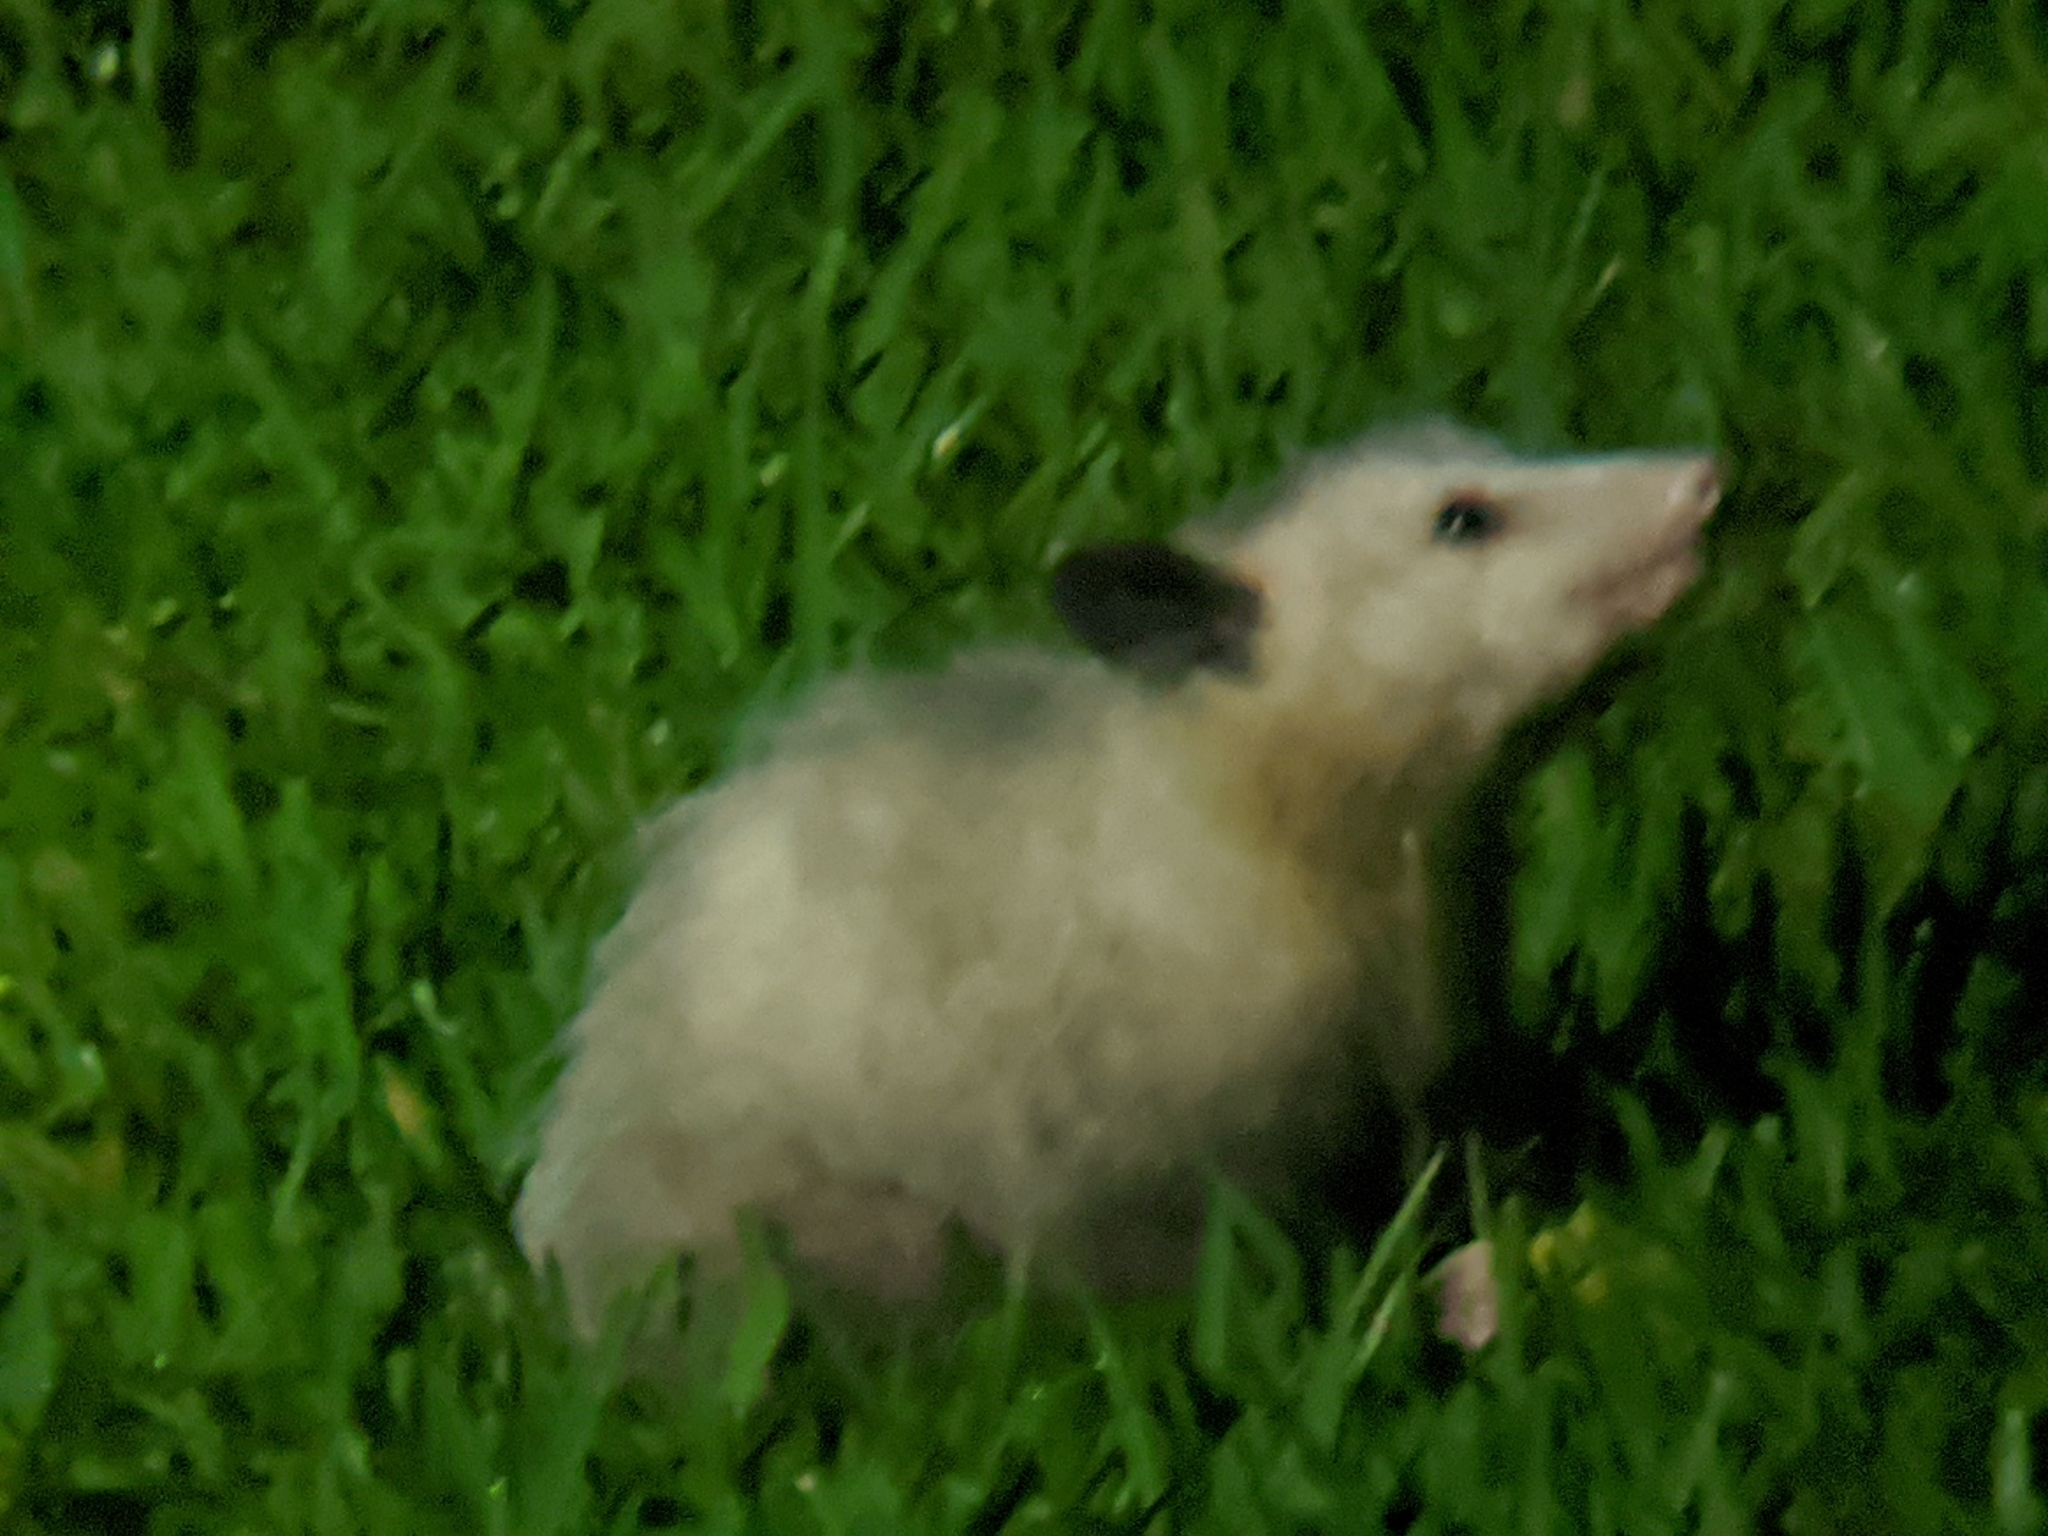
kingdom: Animalia
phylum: Chordata
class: Mammalia
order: Didelphimorphia
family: Didelphidae
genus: Didelphis
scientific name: Didelphis virginiana
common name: Virginia opossum
